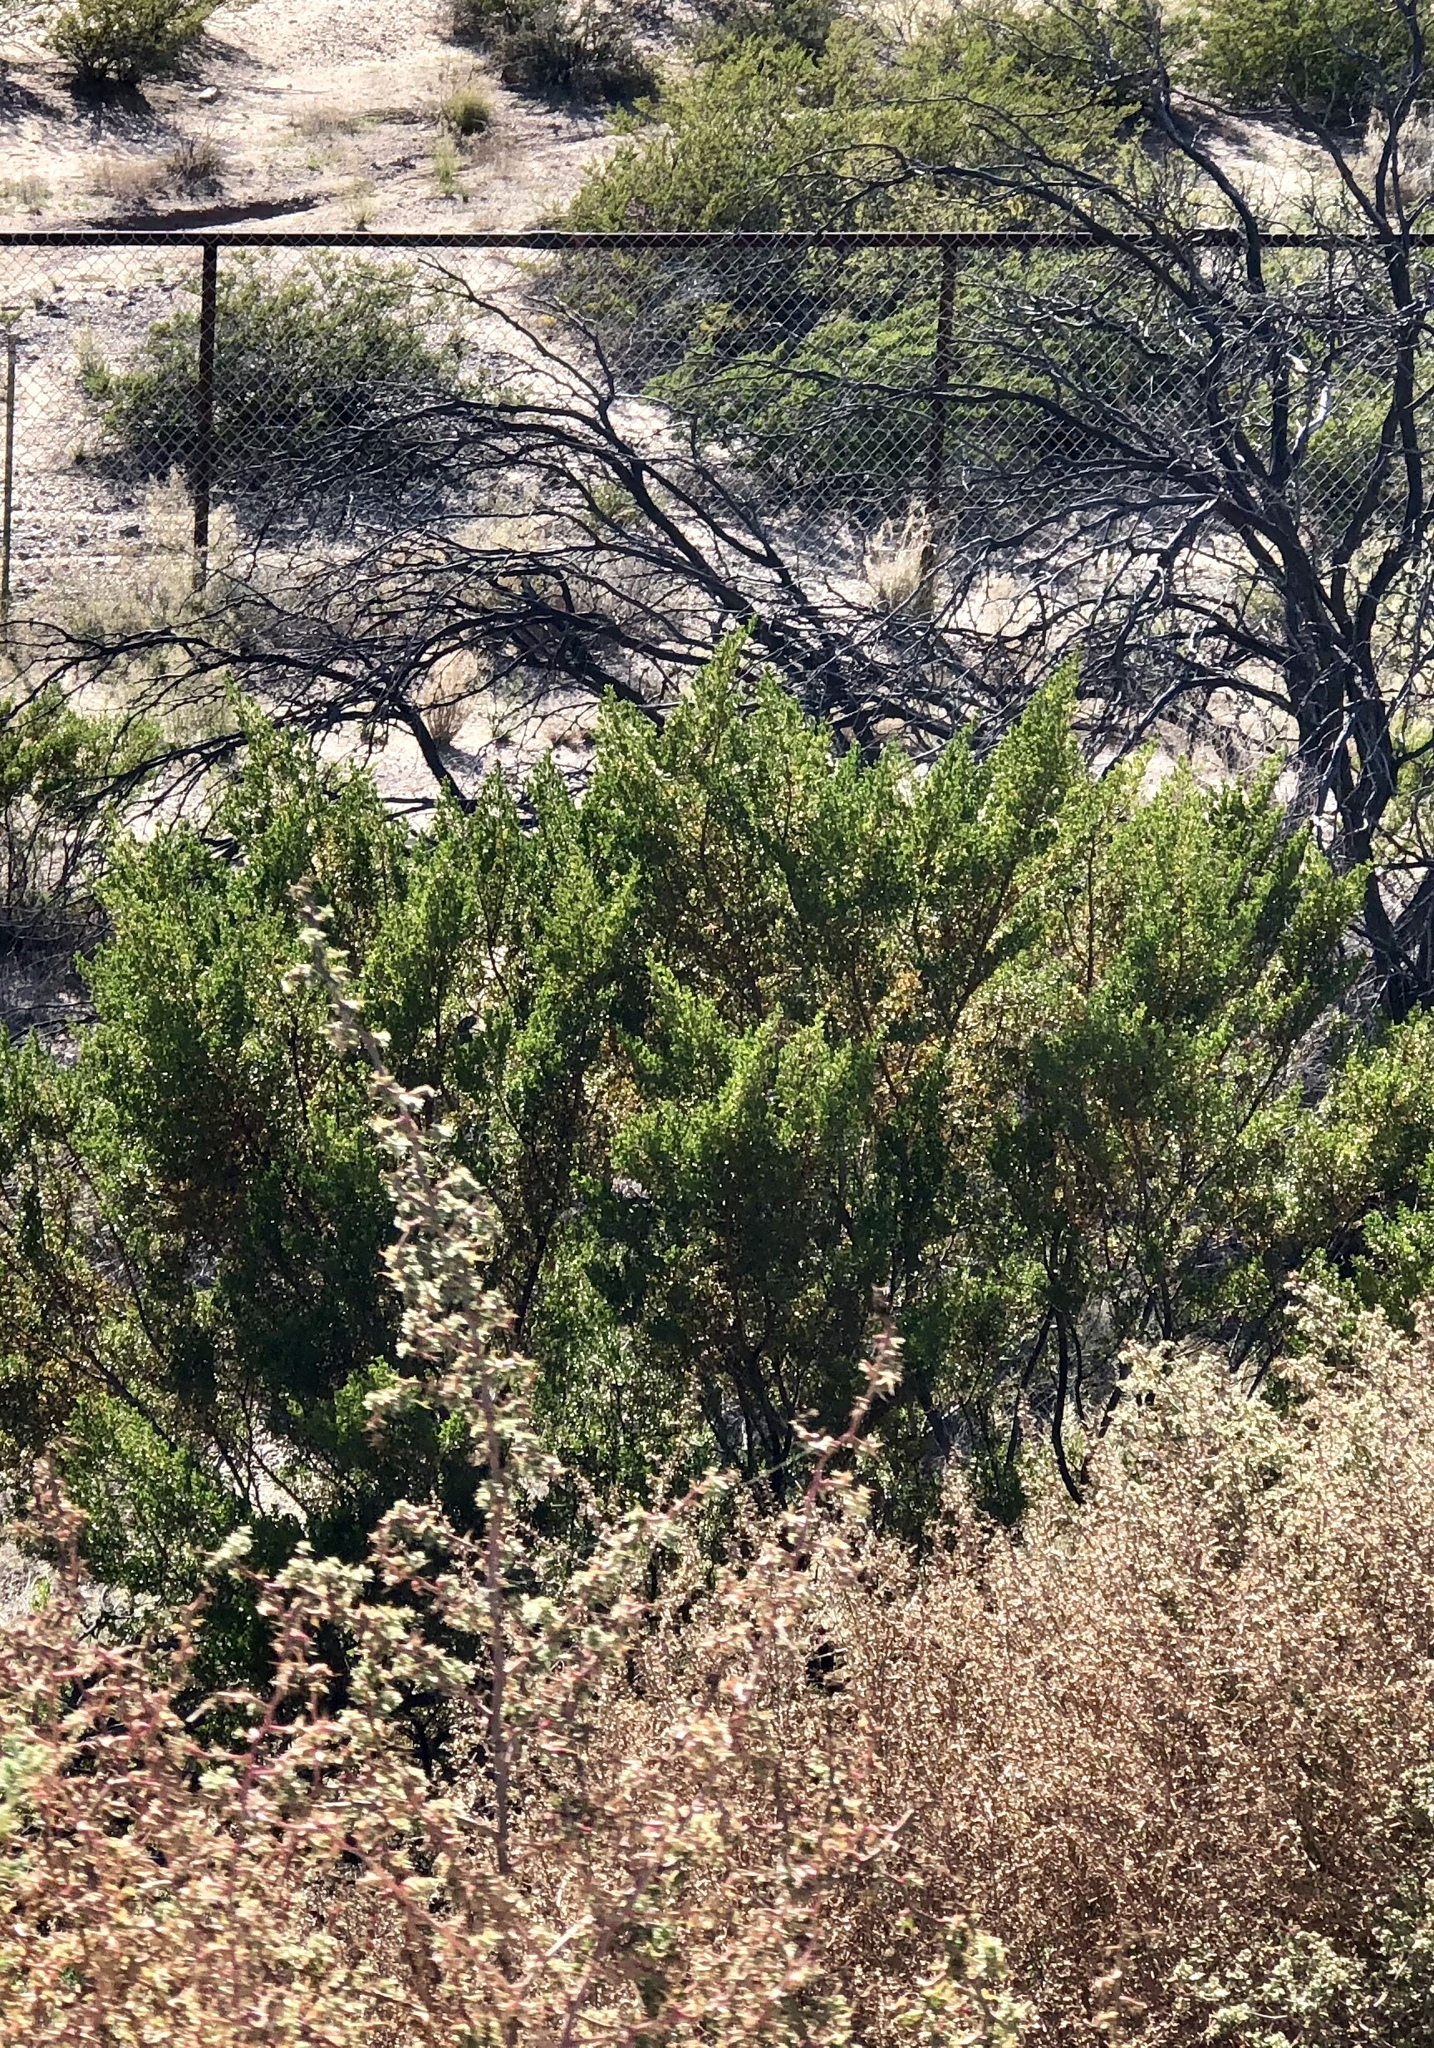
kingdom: Plantae
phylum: Tracheophyta
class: Magnoliopsida
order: Zygophyllales
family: Zygophyllaceae
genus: Larrea
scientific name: Larrea tridentata
